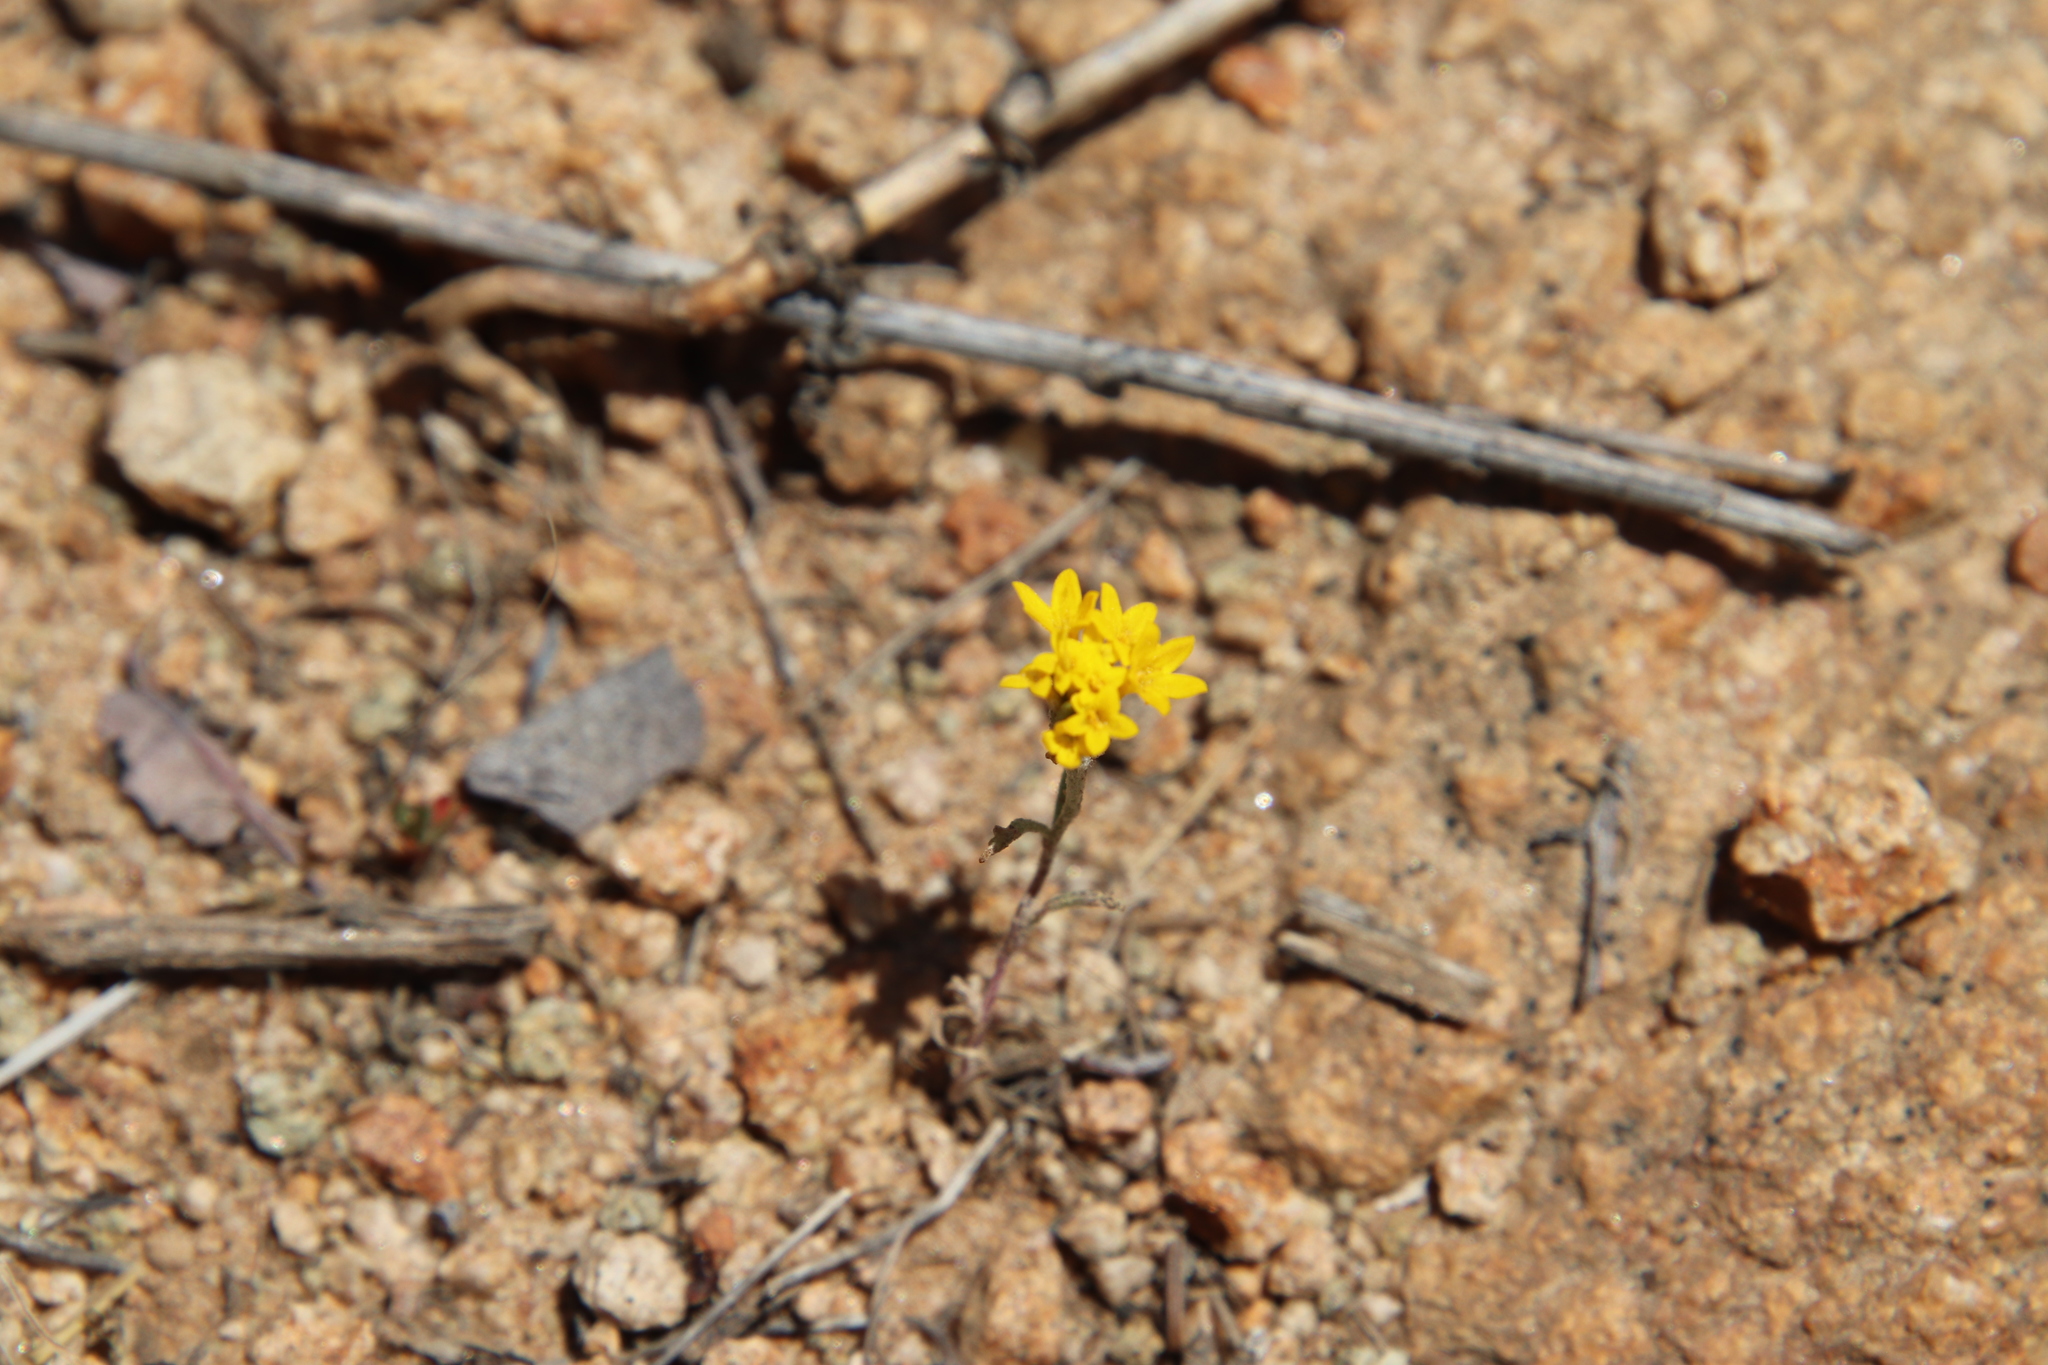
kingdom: Plantae
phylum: Tracheophyta
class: Magnoliopsida
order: Asterales
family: Asteraceae
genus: Chaenactis
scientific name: Chaenactis glabriuscula
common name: Yellow pincushion
